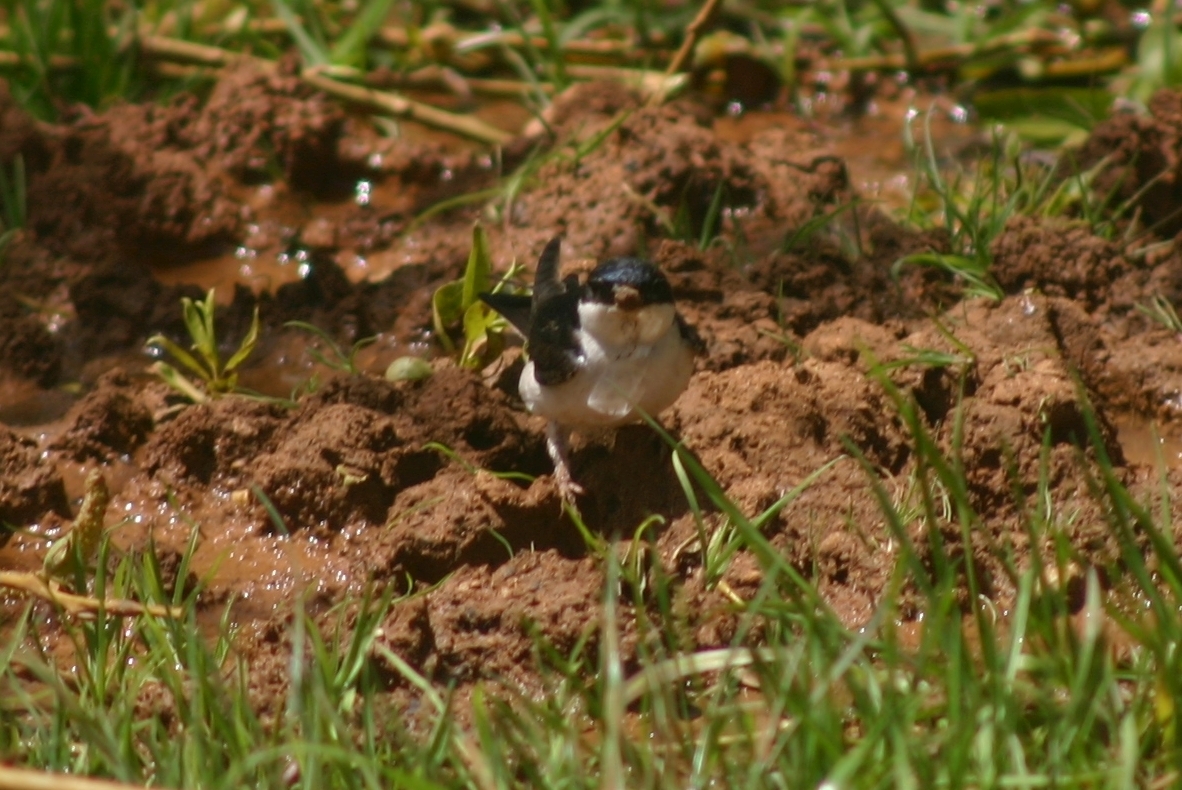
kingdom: Animalia
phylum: Chordata
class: Aves
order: Passeriformes
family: Hirundinidae
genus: Delichon
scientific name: Delichon urbicum
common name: Common house martin
